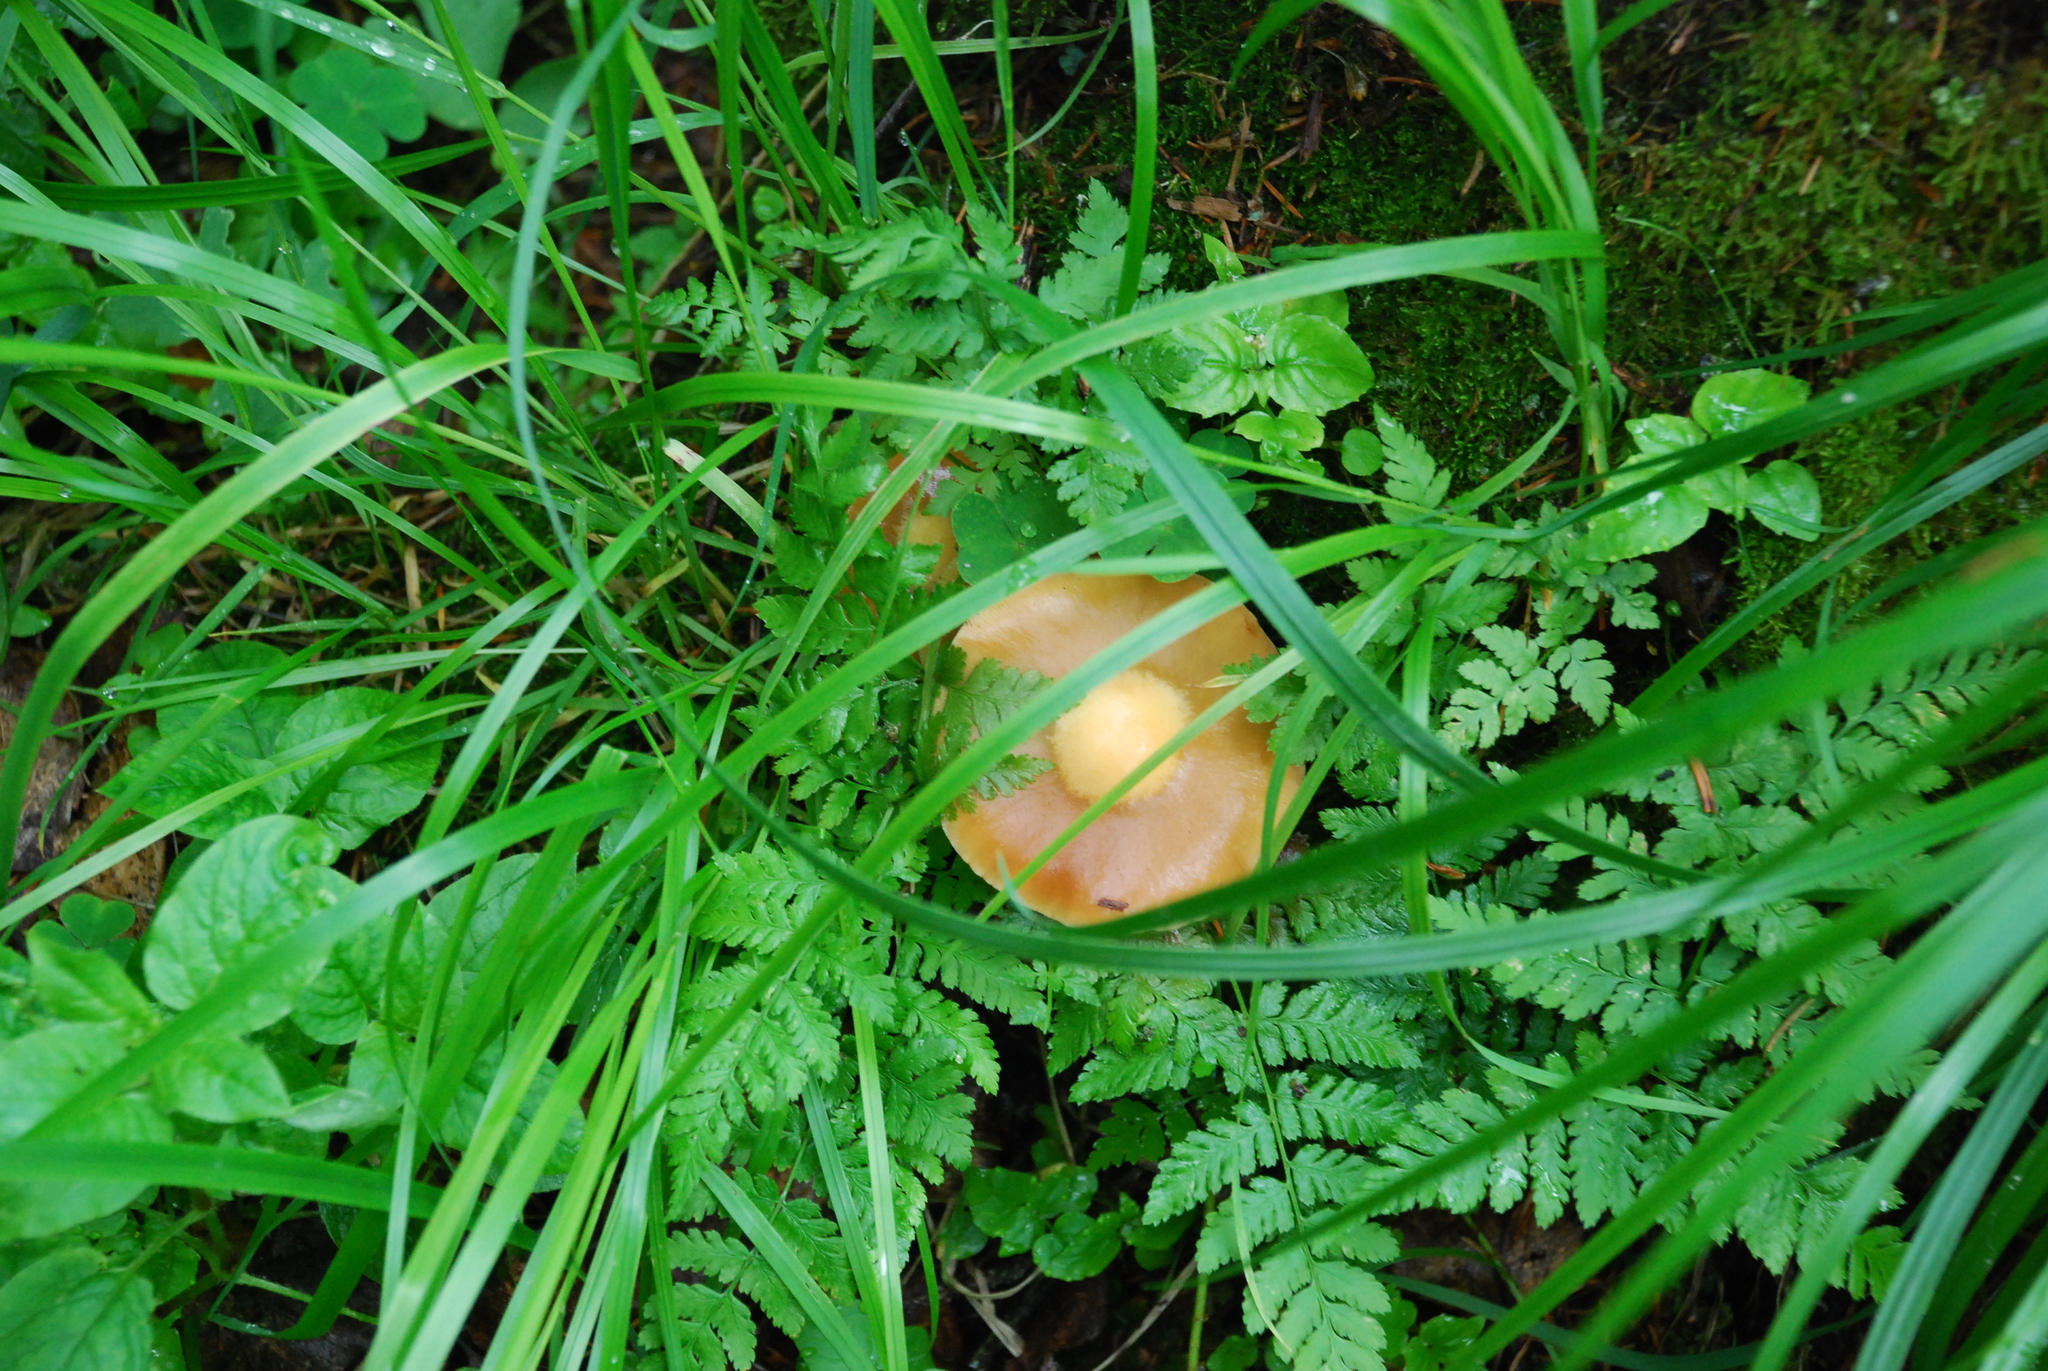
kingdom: Fungi
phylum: Basidiomycota
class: Agaricomycetes
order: Agaricales
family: Strophariaceae
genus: Kuehneromyces
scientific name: Kuehneromyces mutabilis
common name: Sheathed woodtuft
